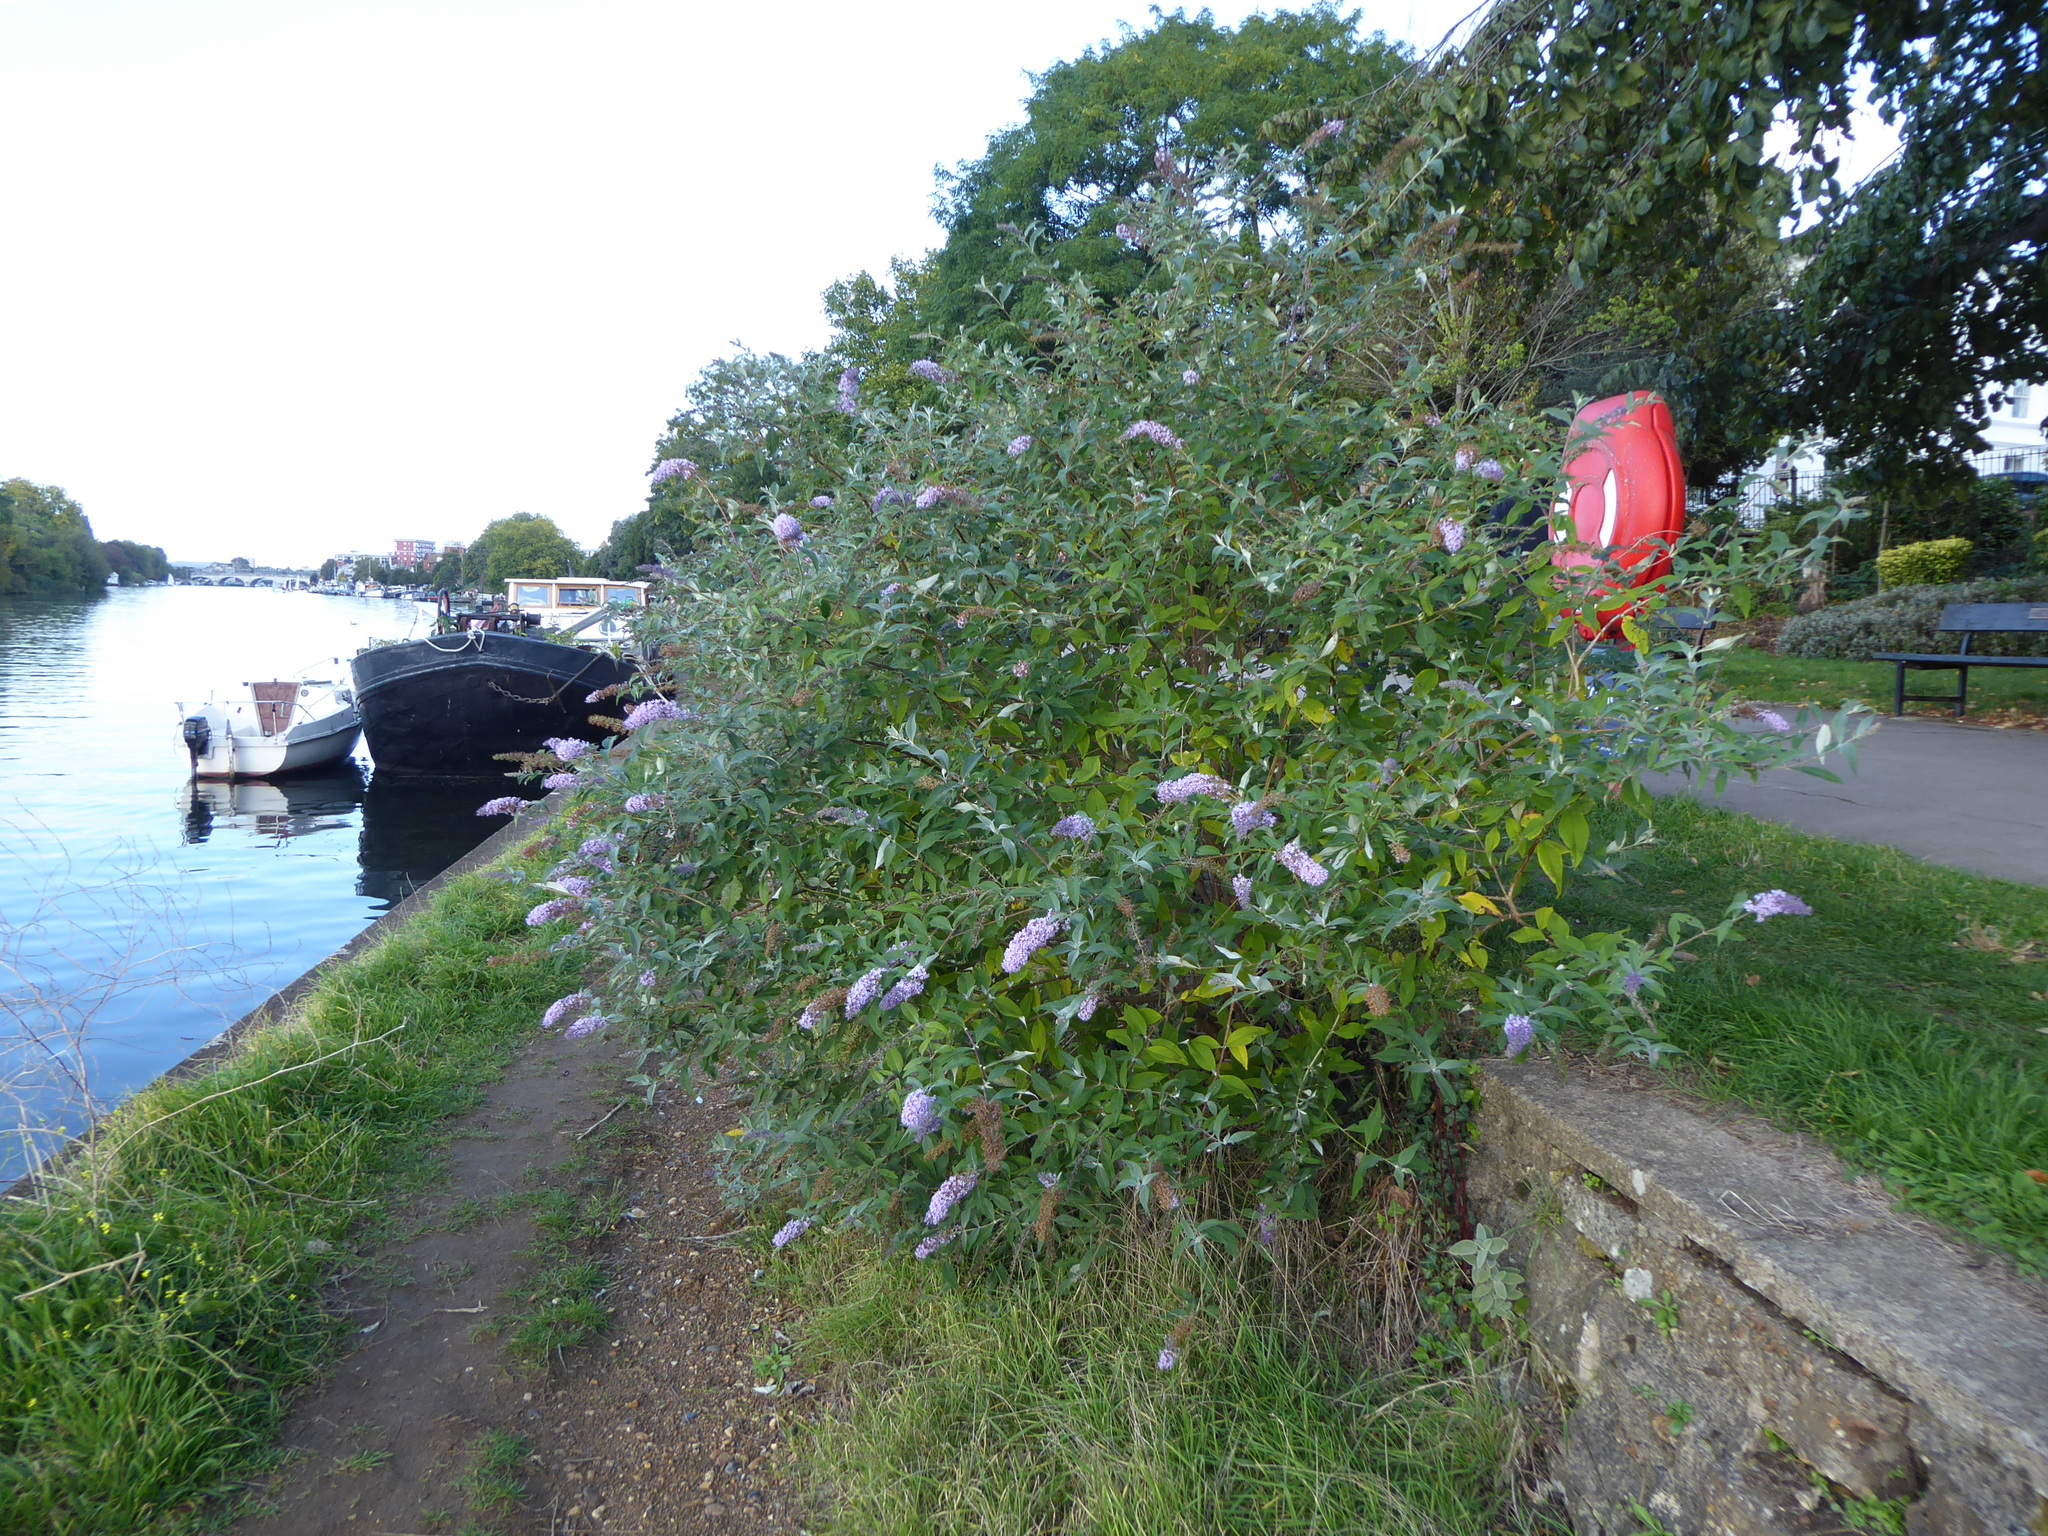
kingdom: Plantae
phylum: Tracheophyta
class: Magnoliopsida
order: Lamiales
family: Scrophulariaceae
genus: Buddleja
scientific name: Buddleja davidii
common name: Butterfly-bush
